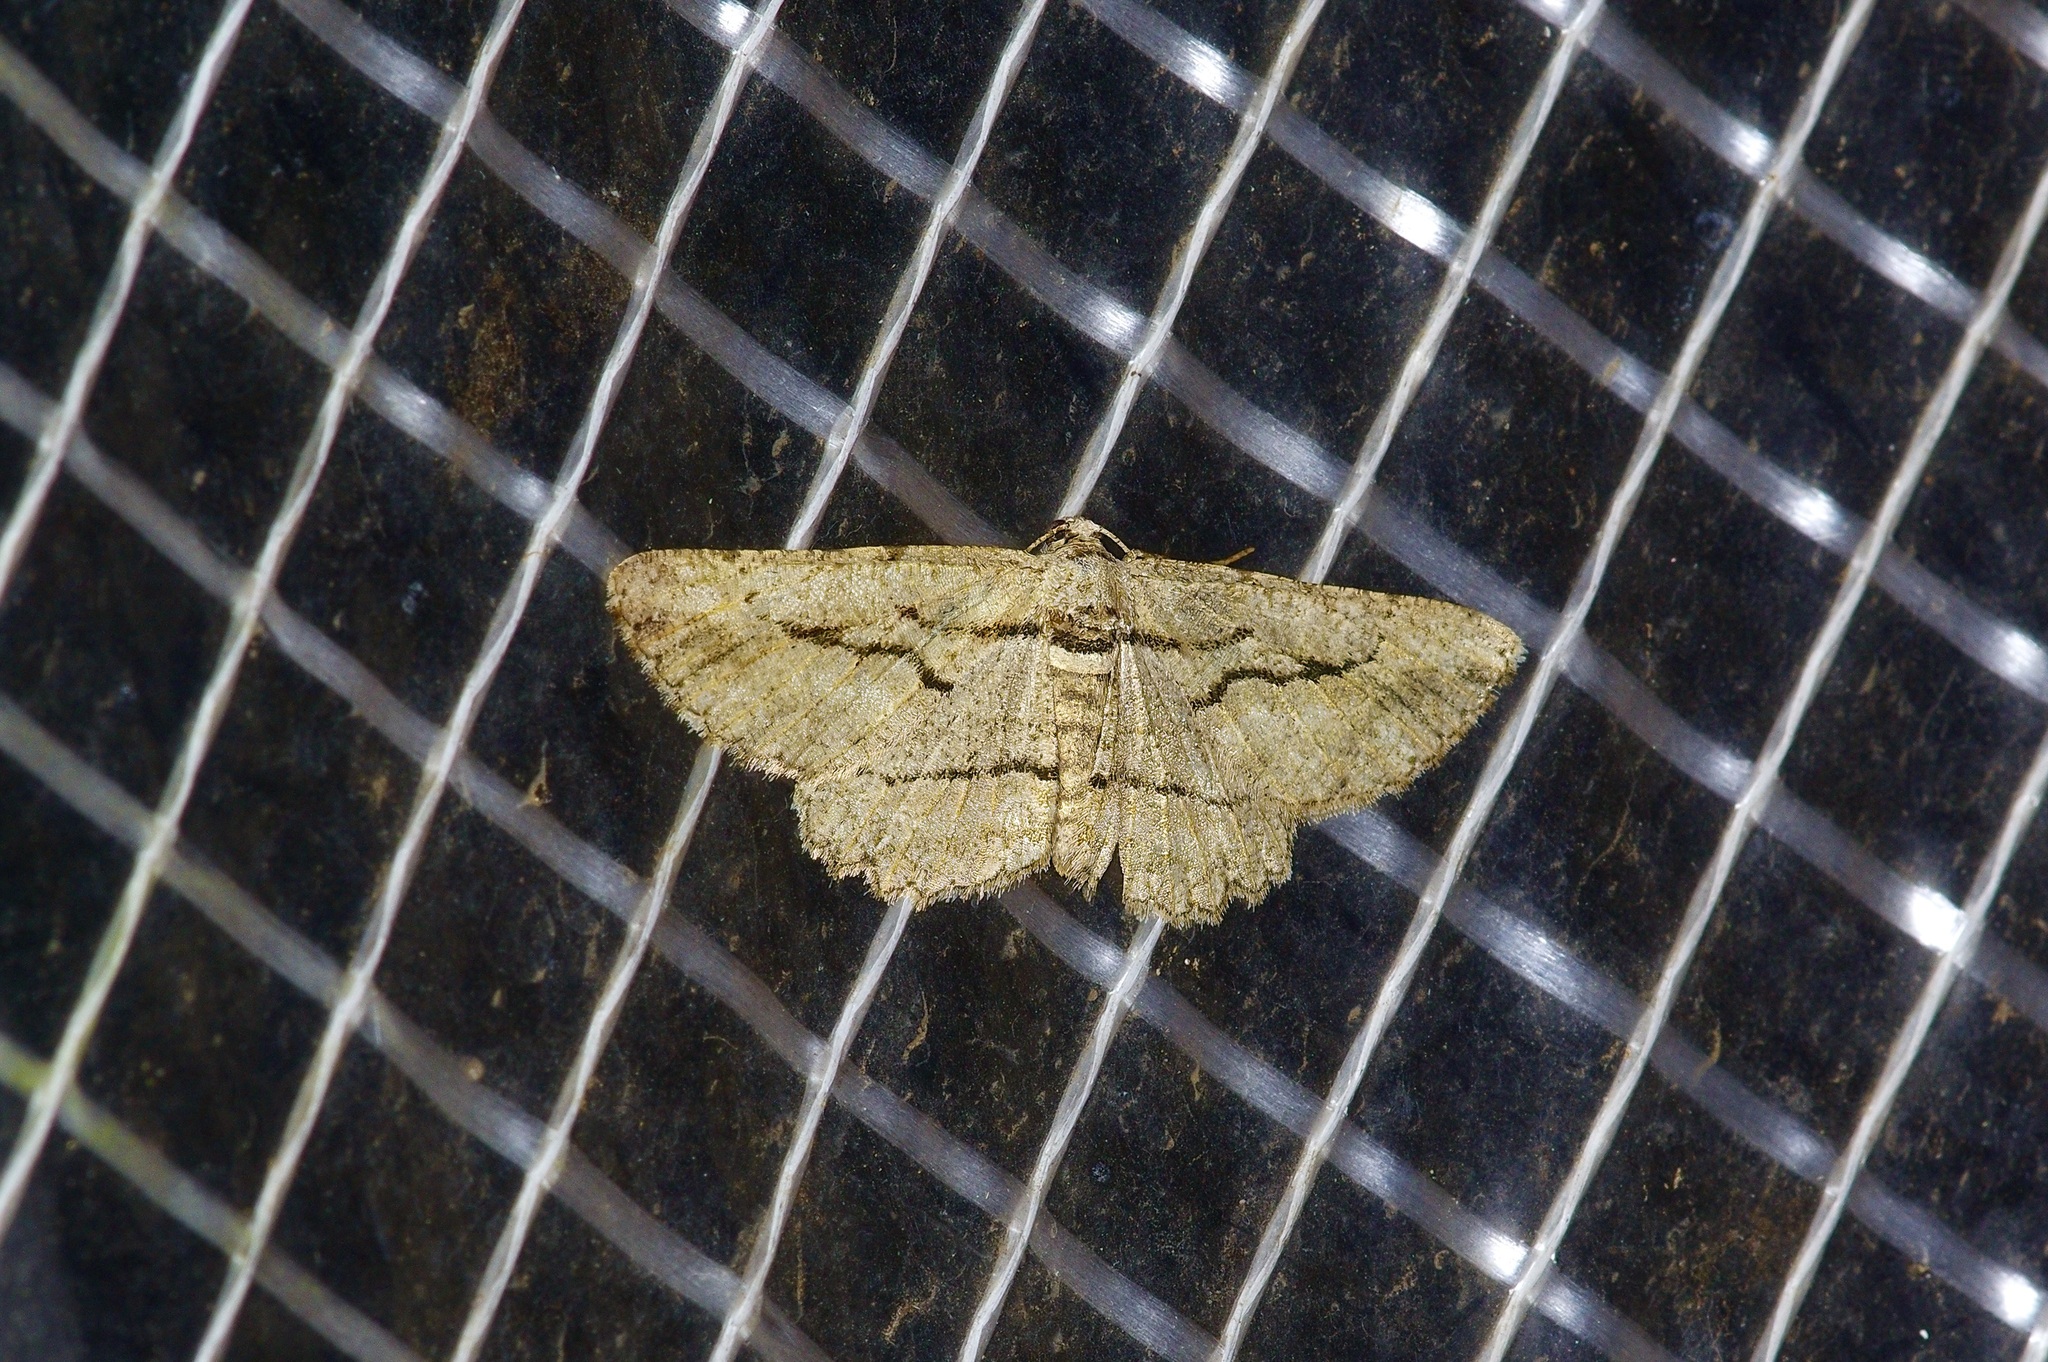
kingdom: Animalia
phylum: Arthropoda
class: Insecta
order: Lepidoptera
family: Geometridae
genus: Anavitrinella
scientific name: Anavitrinella atristrigaria
